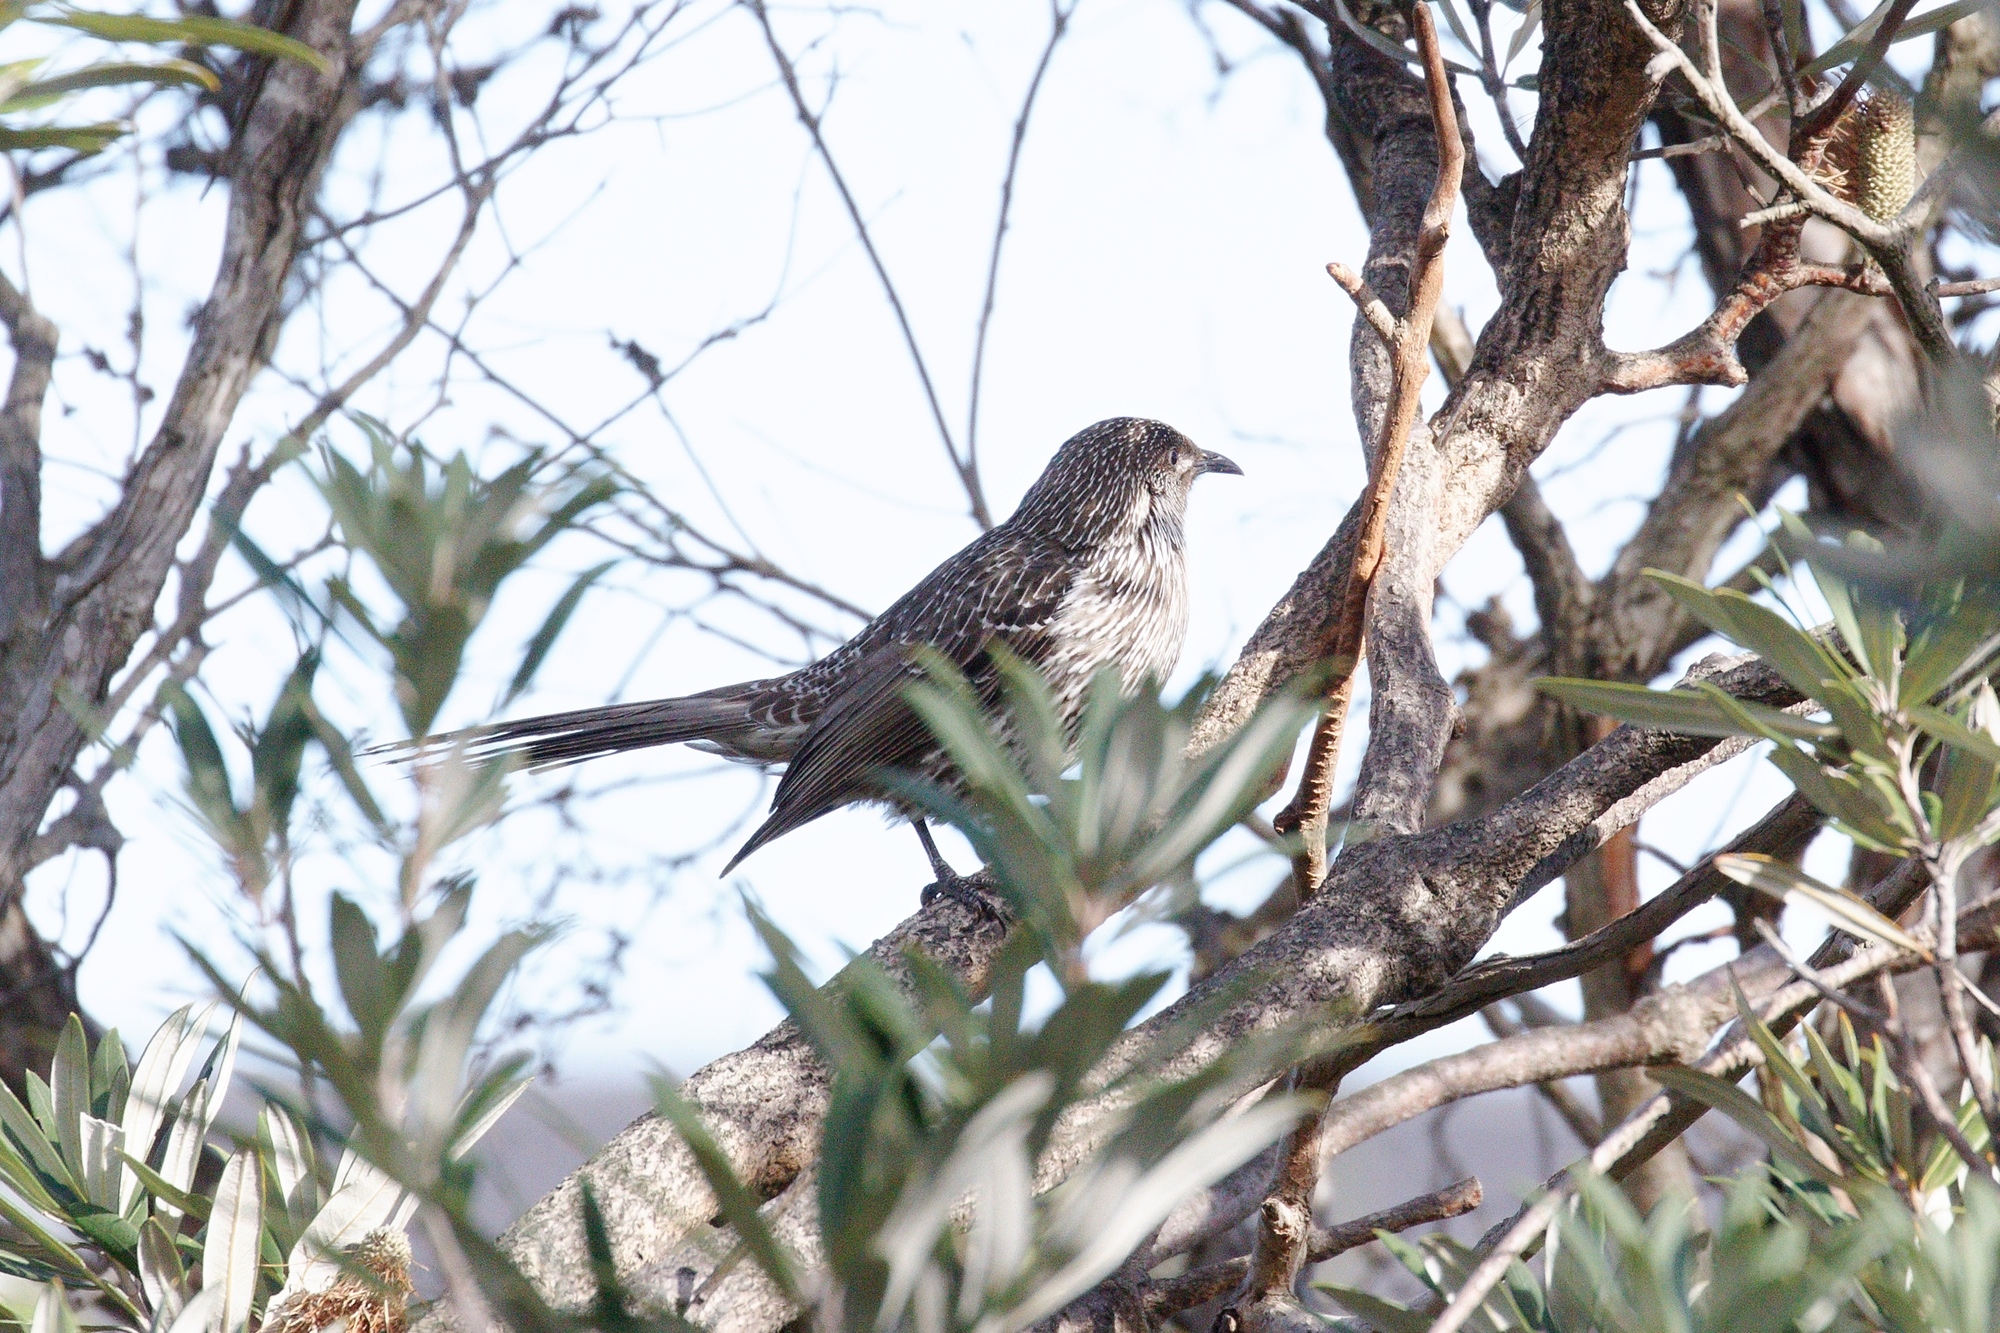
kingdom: Animalia
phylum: Chordata
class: Aves
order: Passeriformes
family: Meliphagidae
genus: Anthochaera
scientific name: Anthochaera chrysoptera
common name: Little wattlebird
